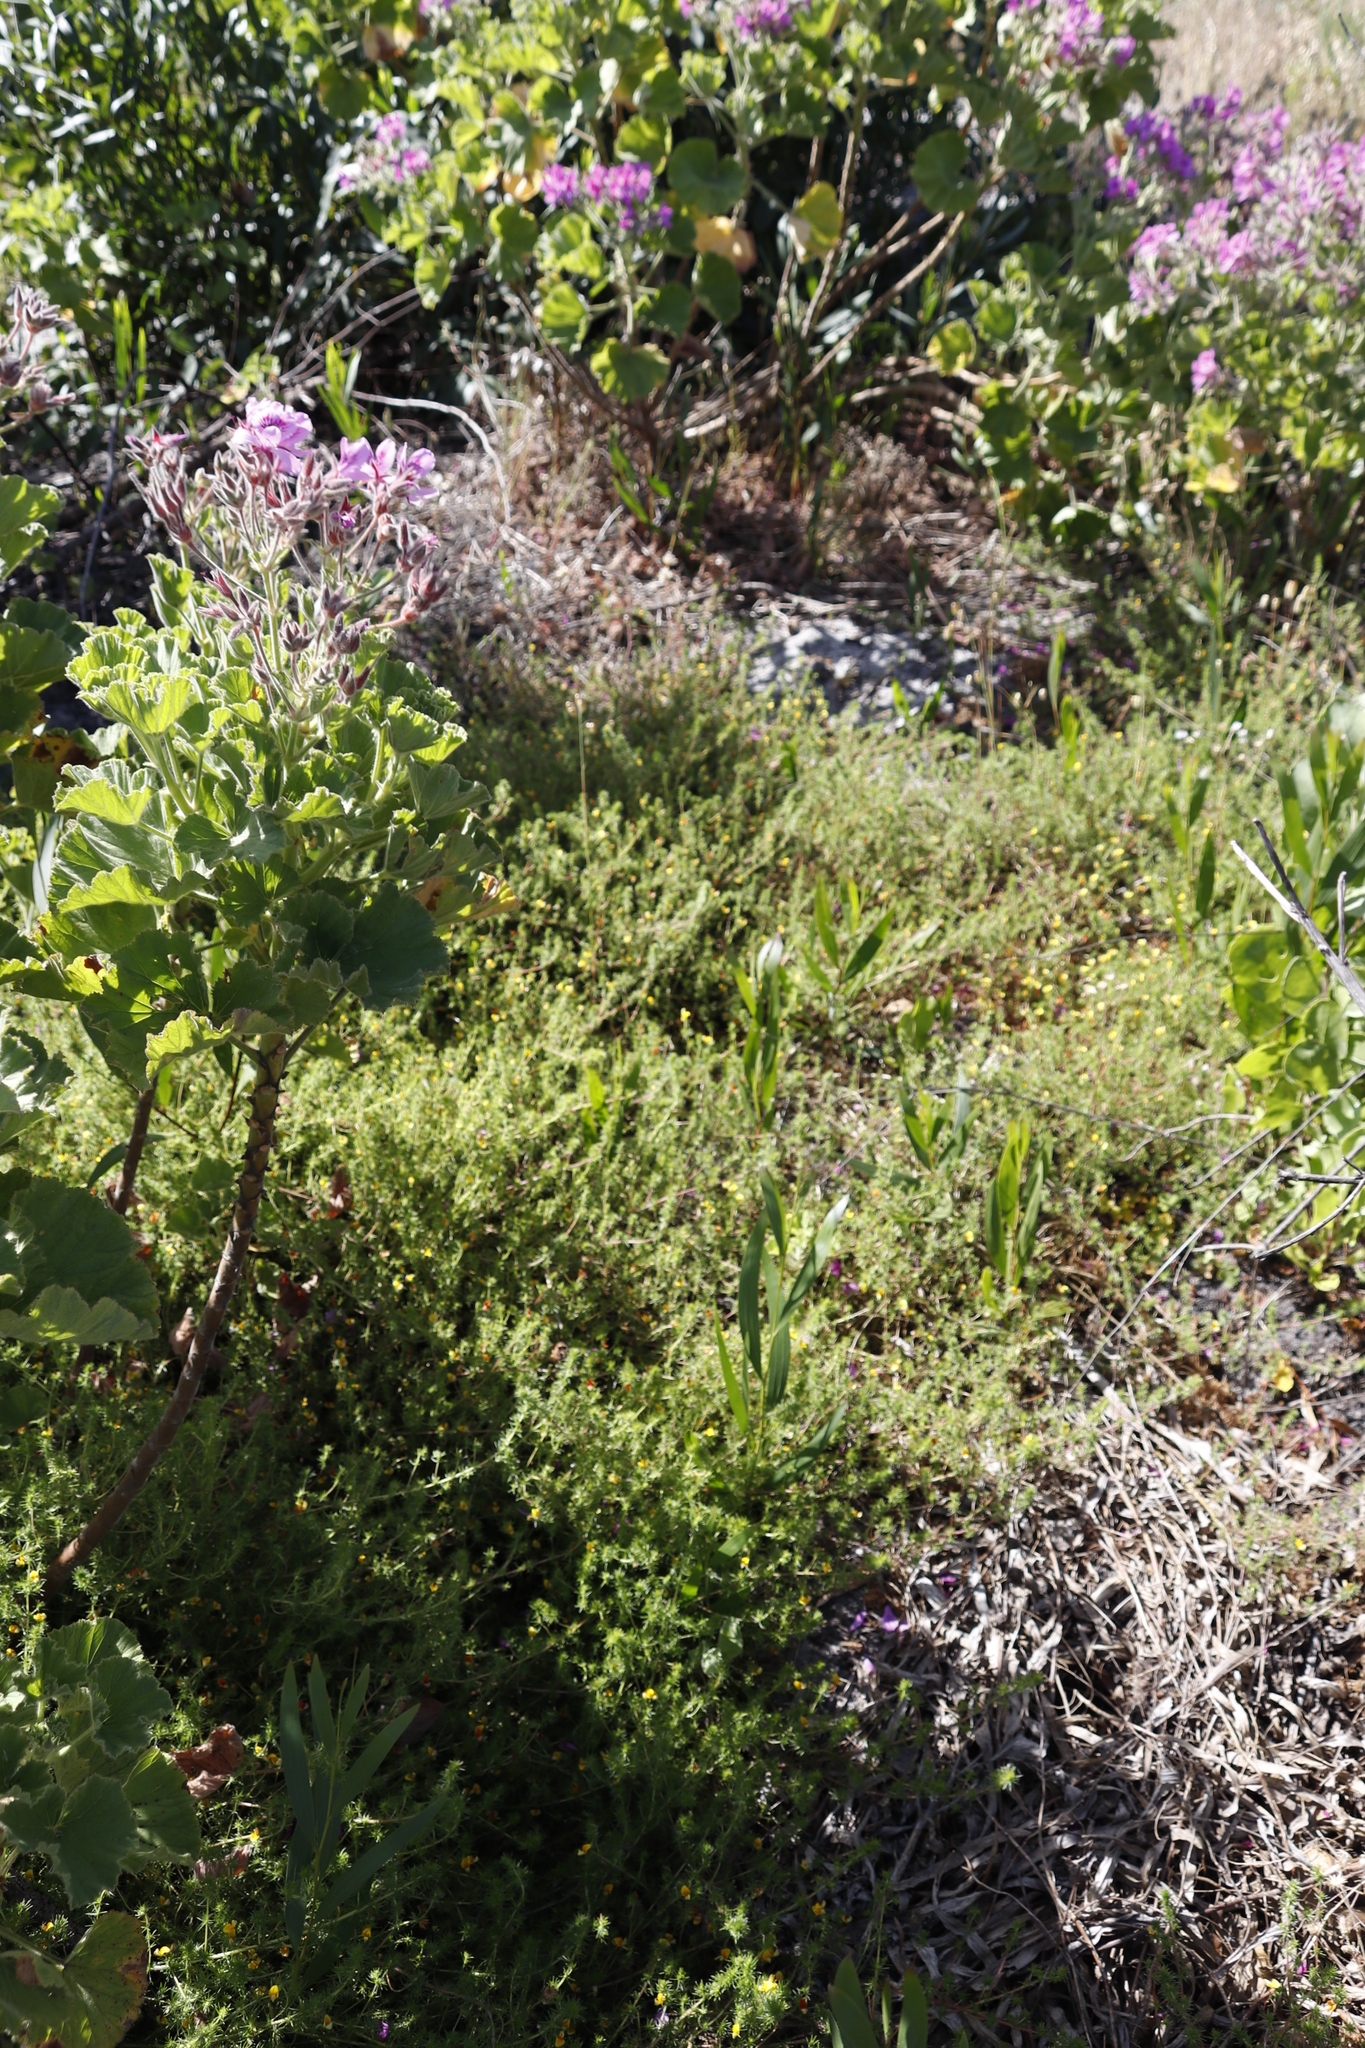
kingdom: Plantae
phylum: Tracheophyta
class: Magnoliopsida
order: Fabales
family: Fabaceae
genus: Acacia
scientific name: Acacia longifolia
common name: Sydney golden wattle
